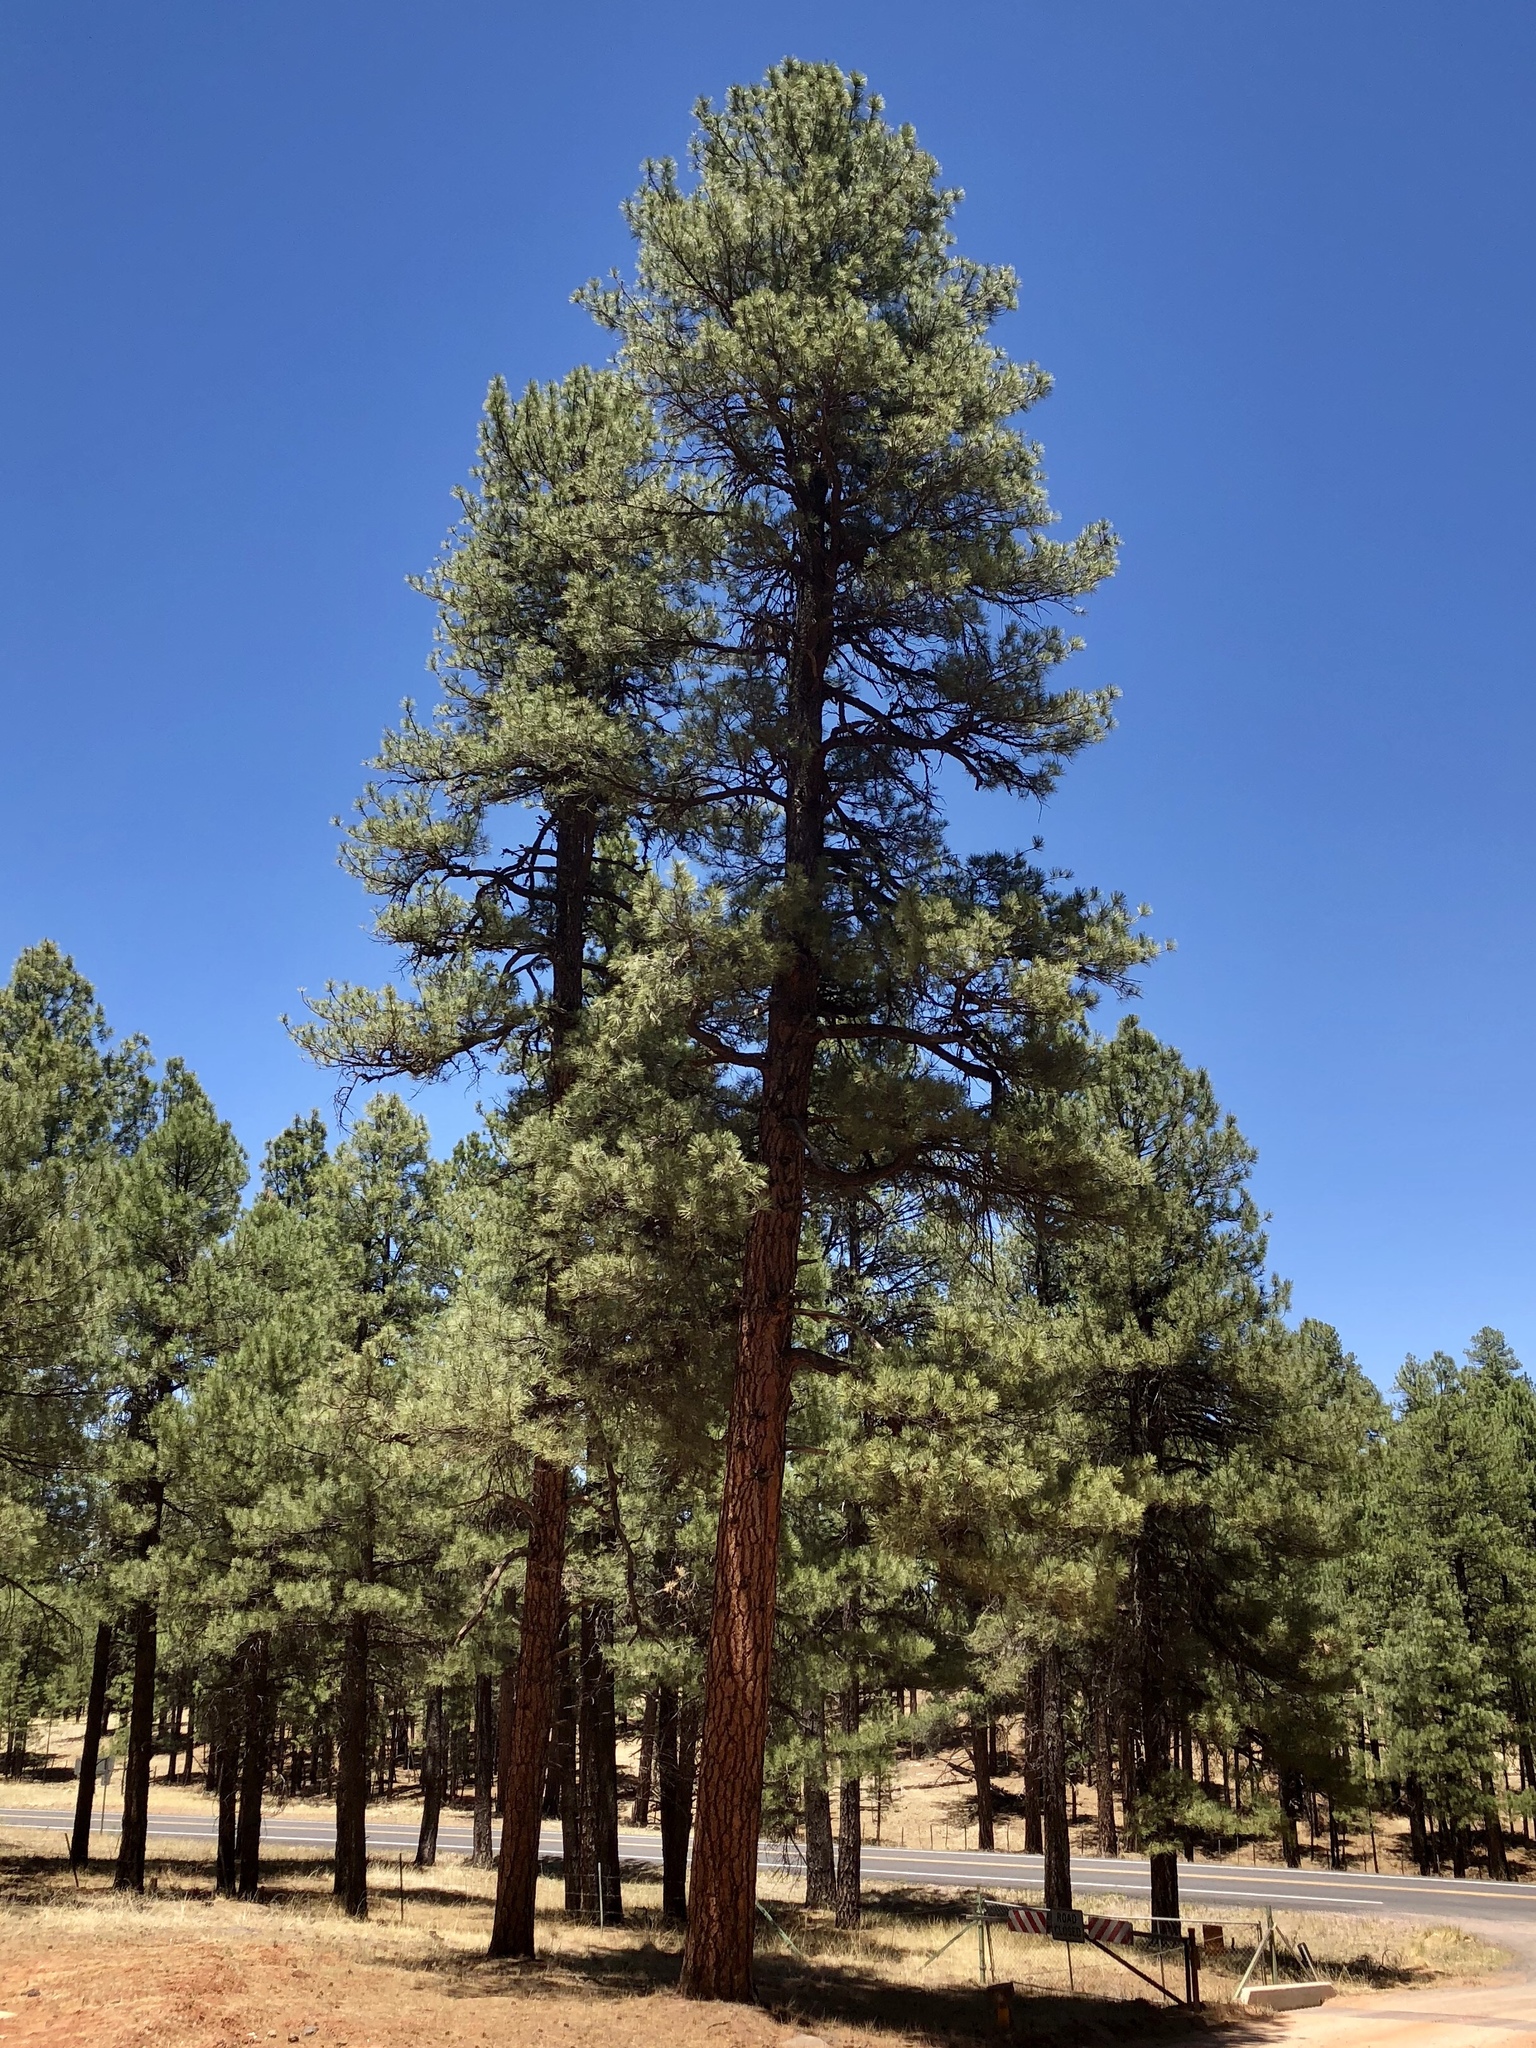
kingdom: Plantae
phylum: Tracheophyta
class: Pinopsida
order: Pinales
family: Pinaceae
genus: Pinus
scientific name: Pinus ponderosa
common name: Western yellow-pine
